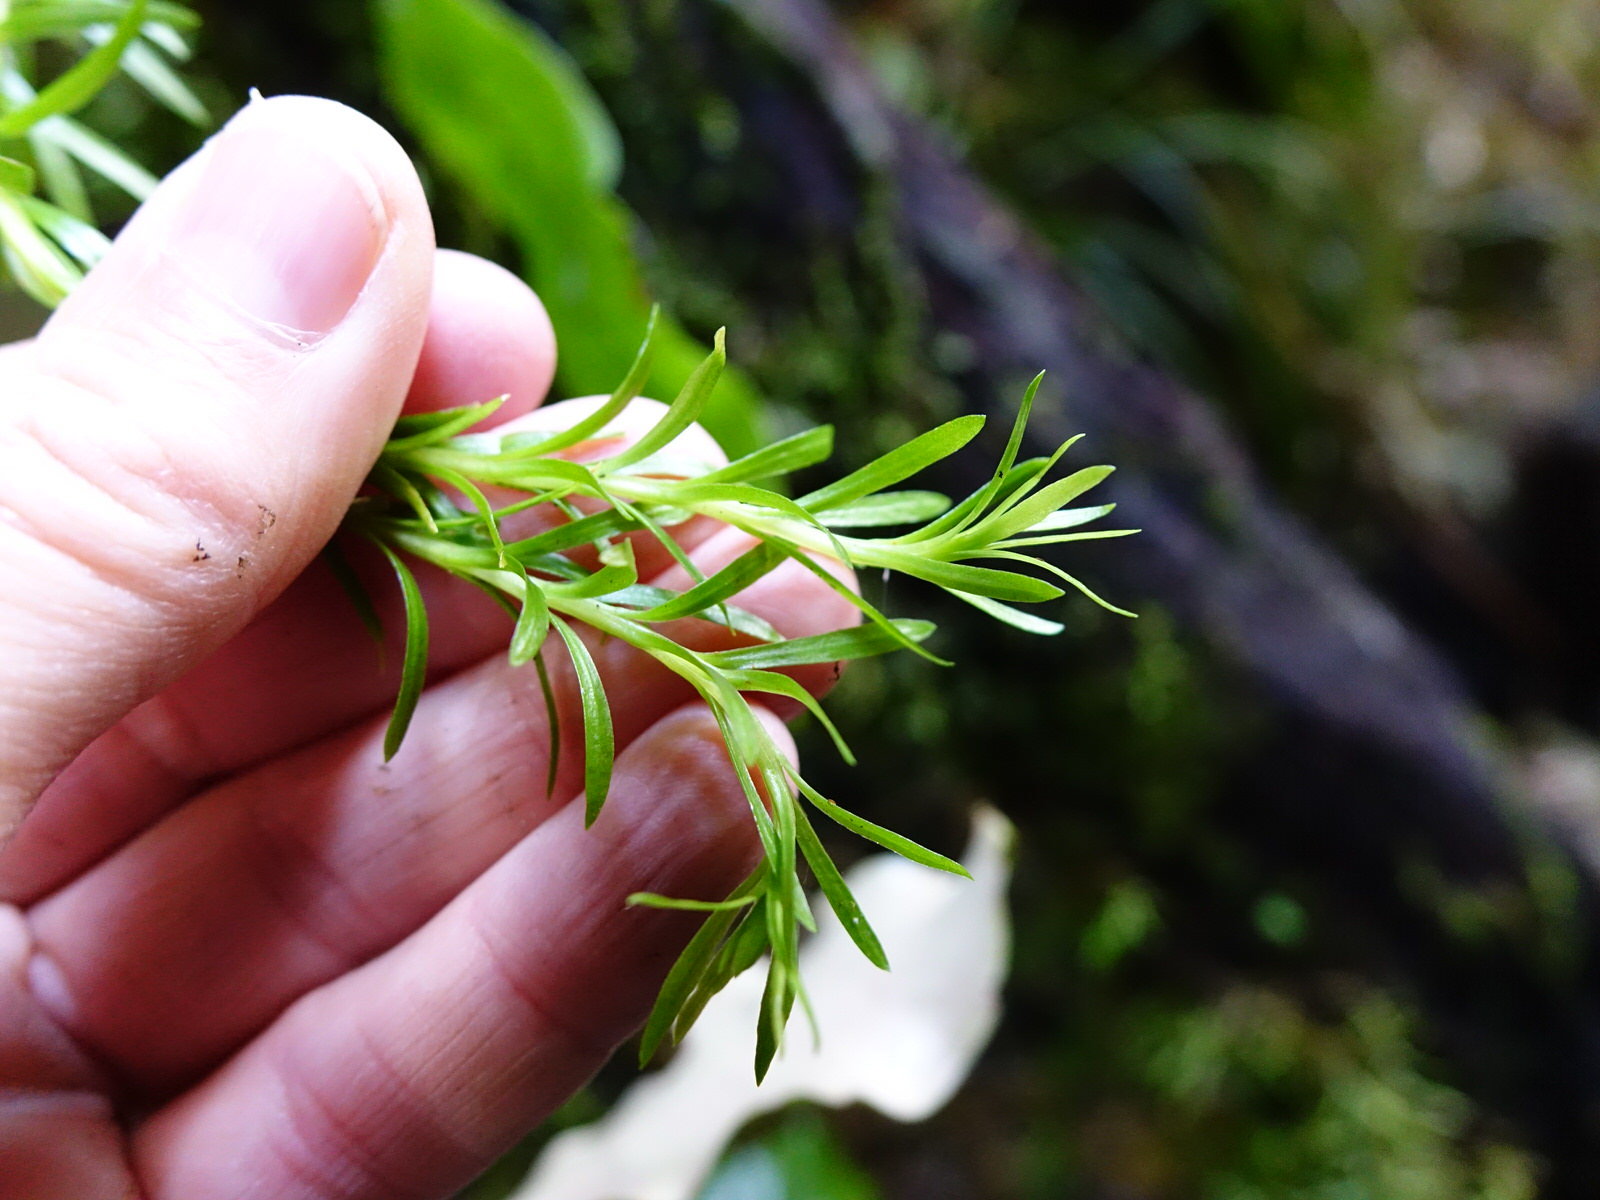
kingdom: Plantae
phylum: Tracheophyta
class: Lycopodiopsida
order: Lycopodiales
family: Lycopodiaceae
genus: Phlegmariurus
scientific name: Phlegmariurus varius
